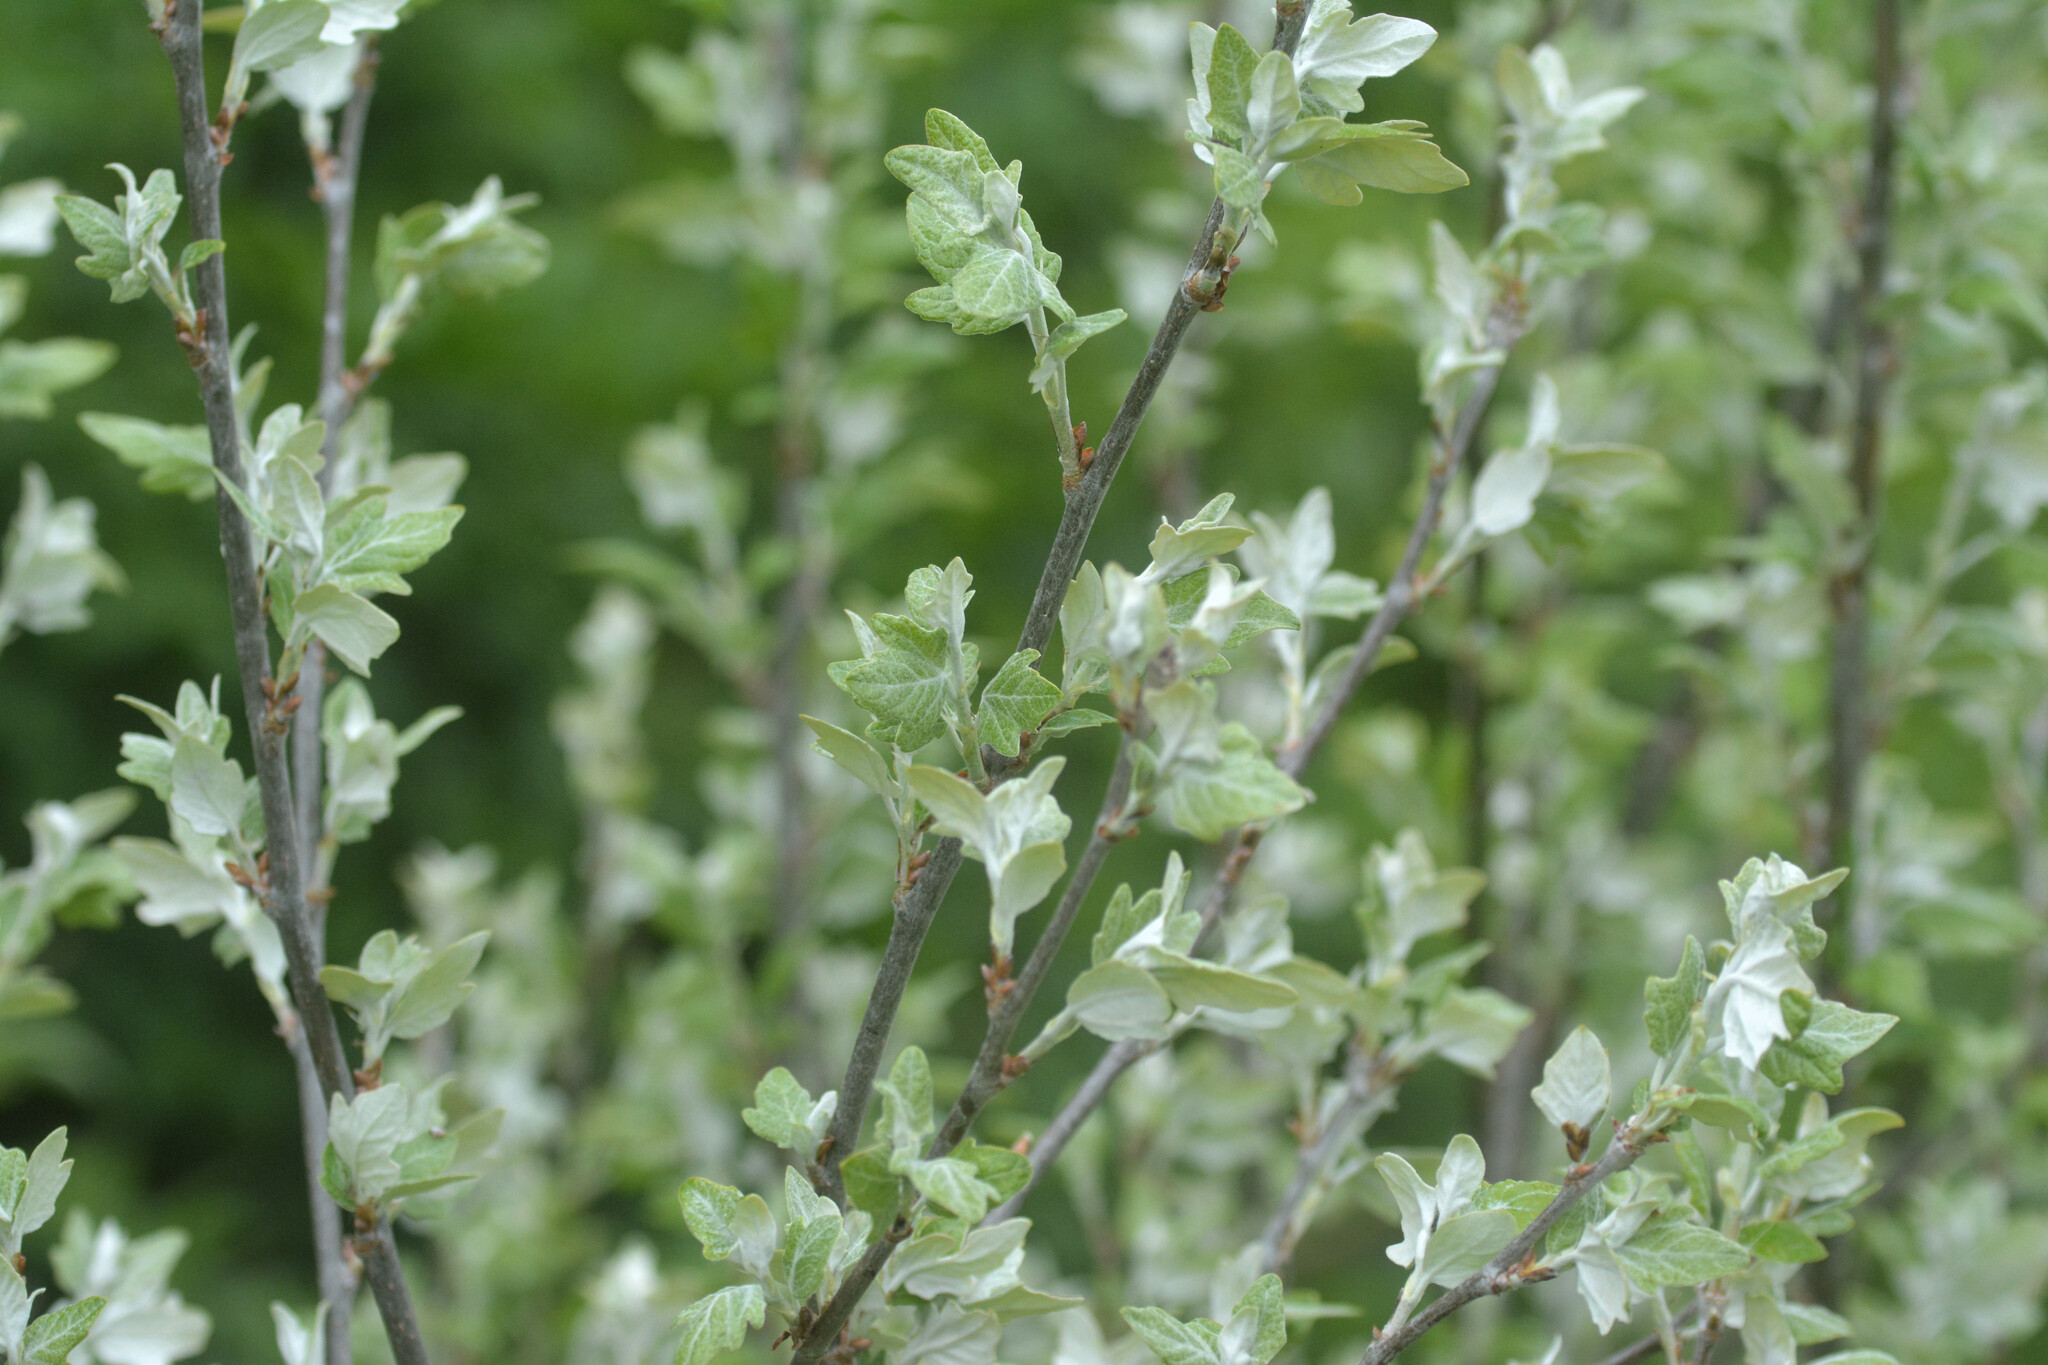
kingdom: Plantae
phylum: Tracheophyta
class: Magnoliopsida
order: Malpighiales
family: Salicaceae
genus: Populus
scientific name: Populus alba
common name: White poplar
